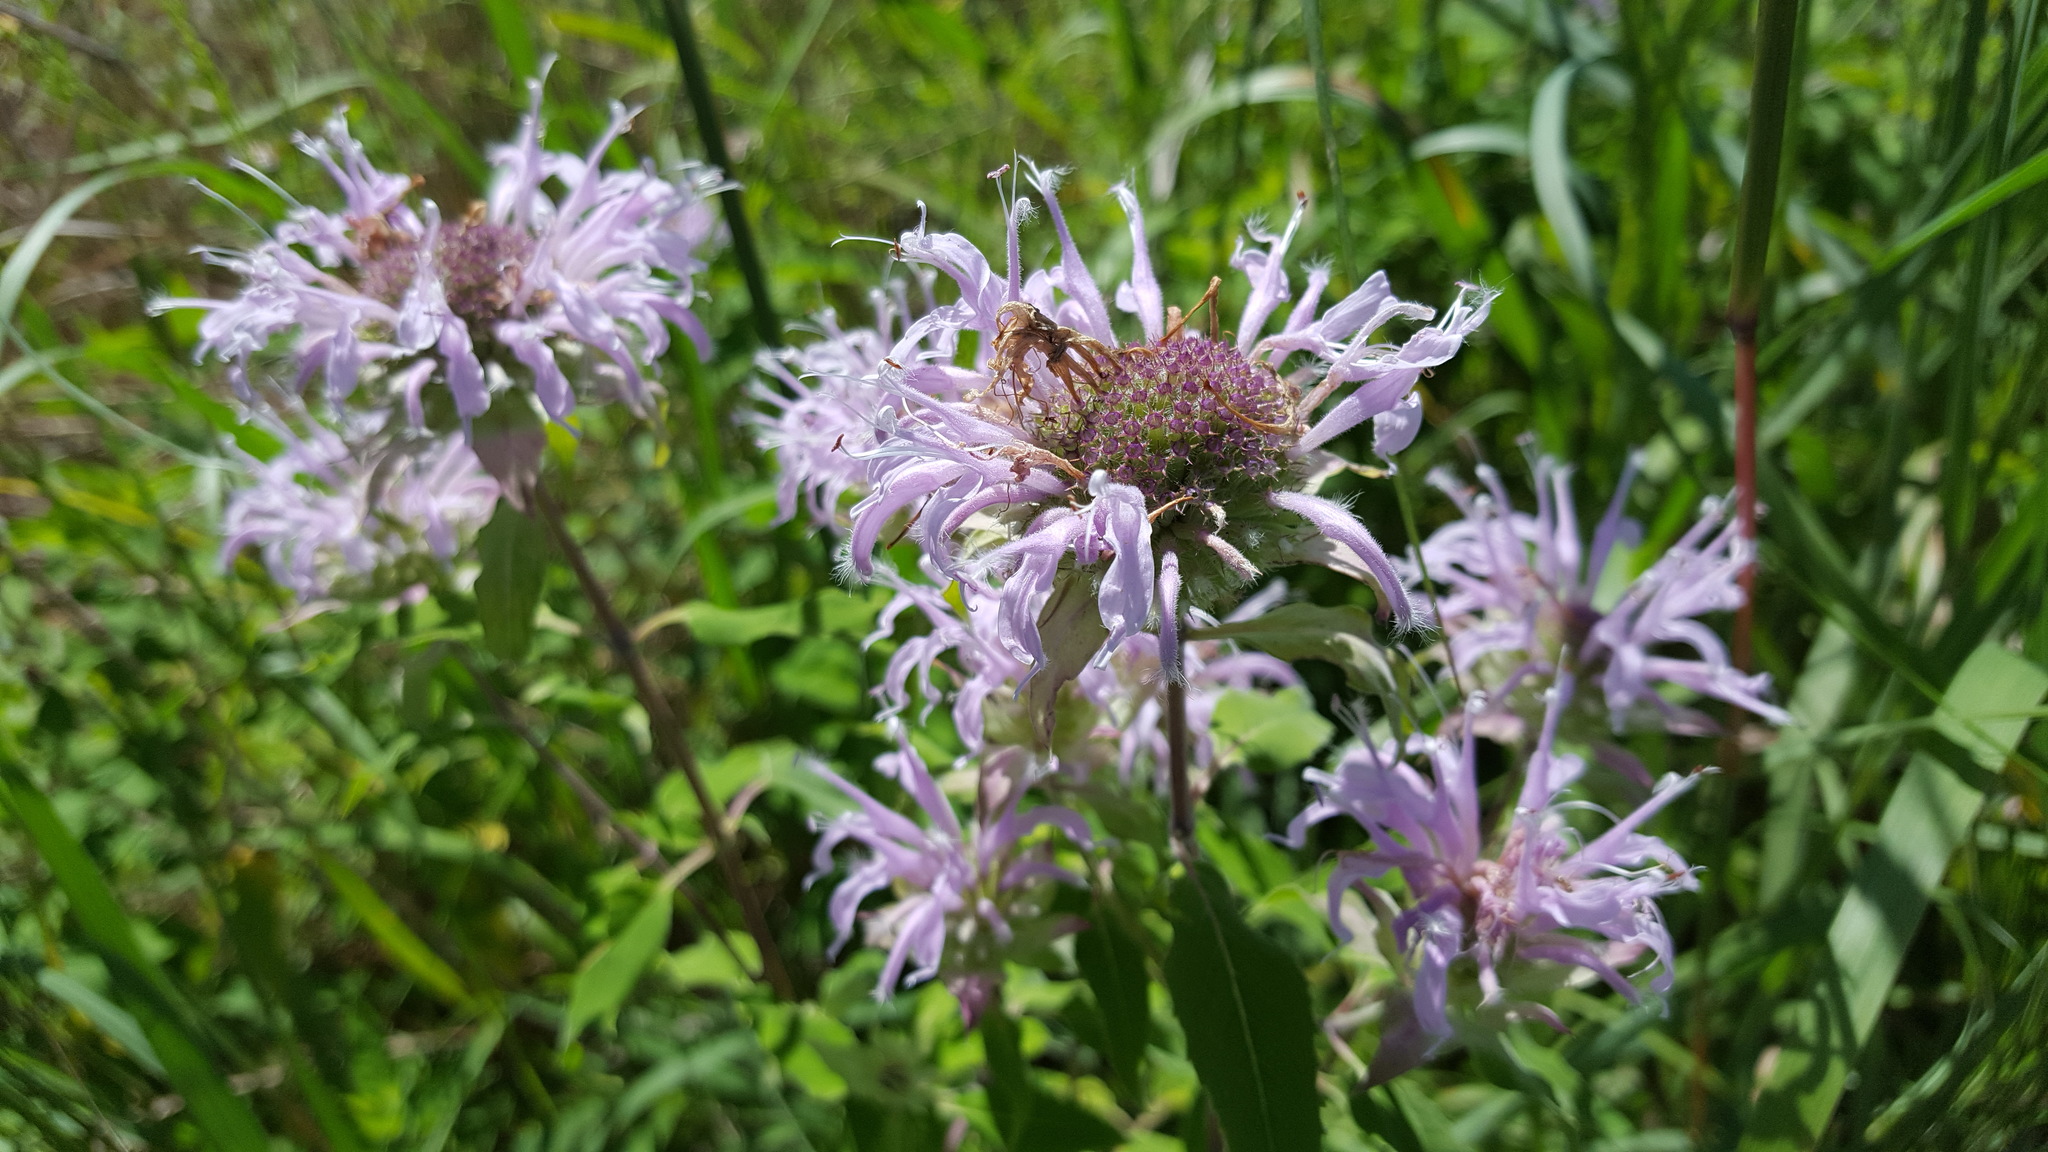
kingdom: Plantae
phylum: Tracheophyta
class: Magnoliopsida
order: Lamiales
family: Lamiaceae
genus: Monarda
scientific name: Monarda fistulosa
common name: Purple beebalm
